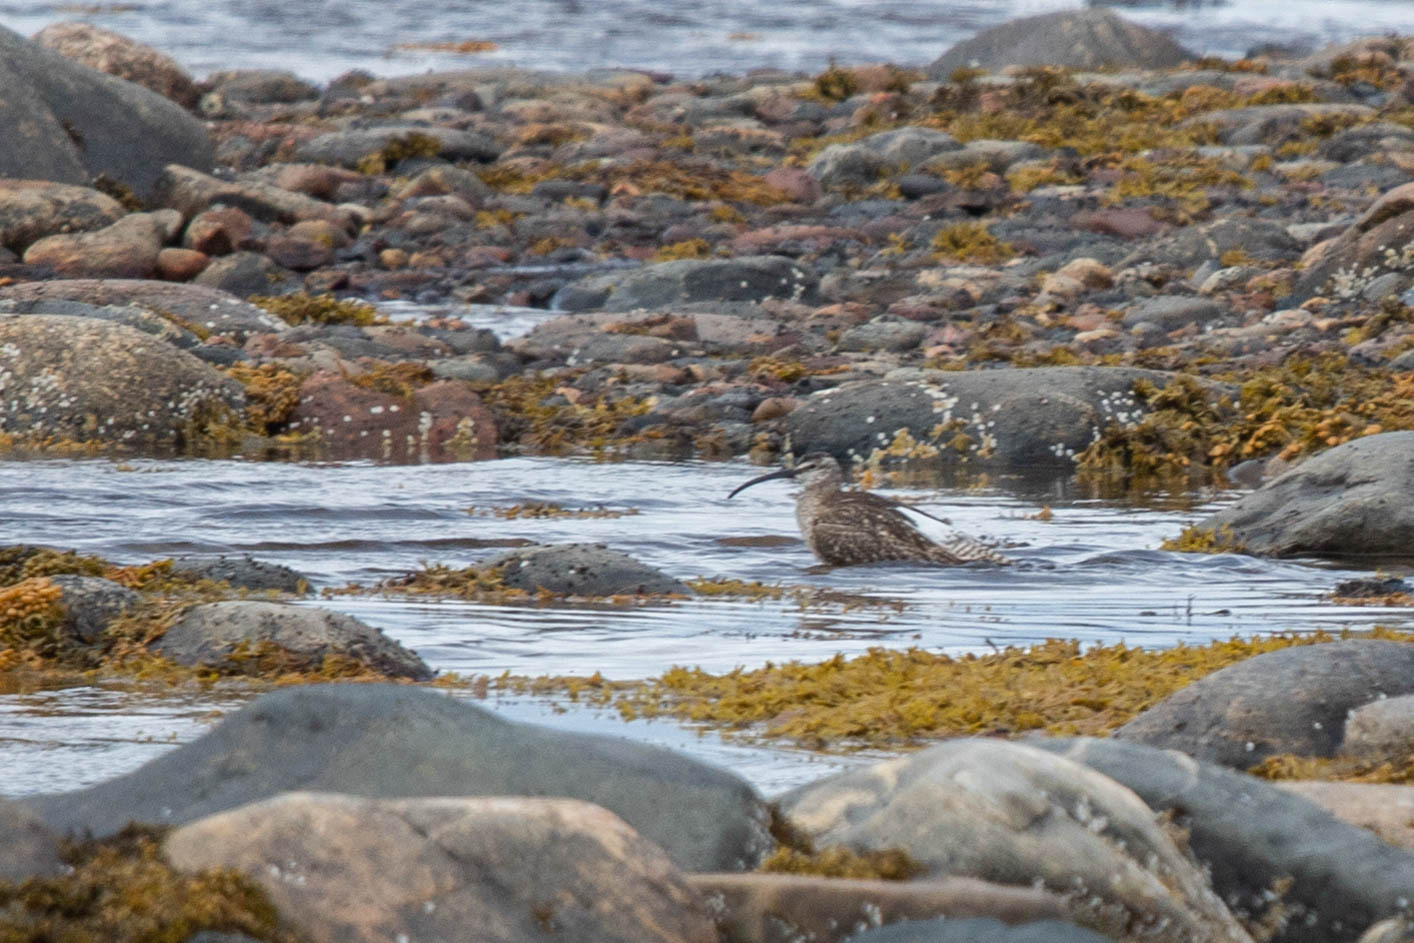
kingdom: Animalia
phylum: Chordata
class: Aves
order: Charadriiformes
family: Scolopacidae
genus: Numenius
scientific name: Numenius phaeopus
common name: Whimbrel
